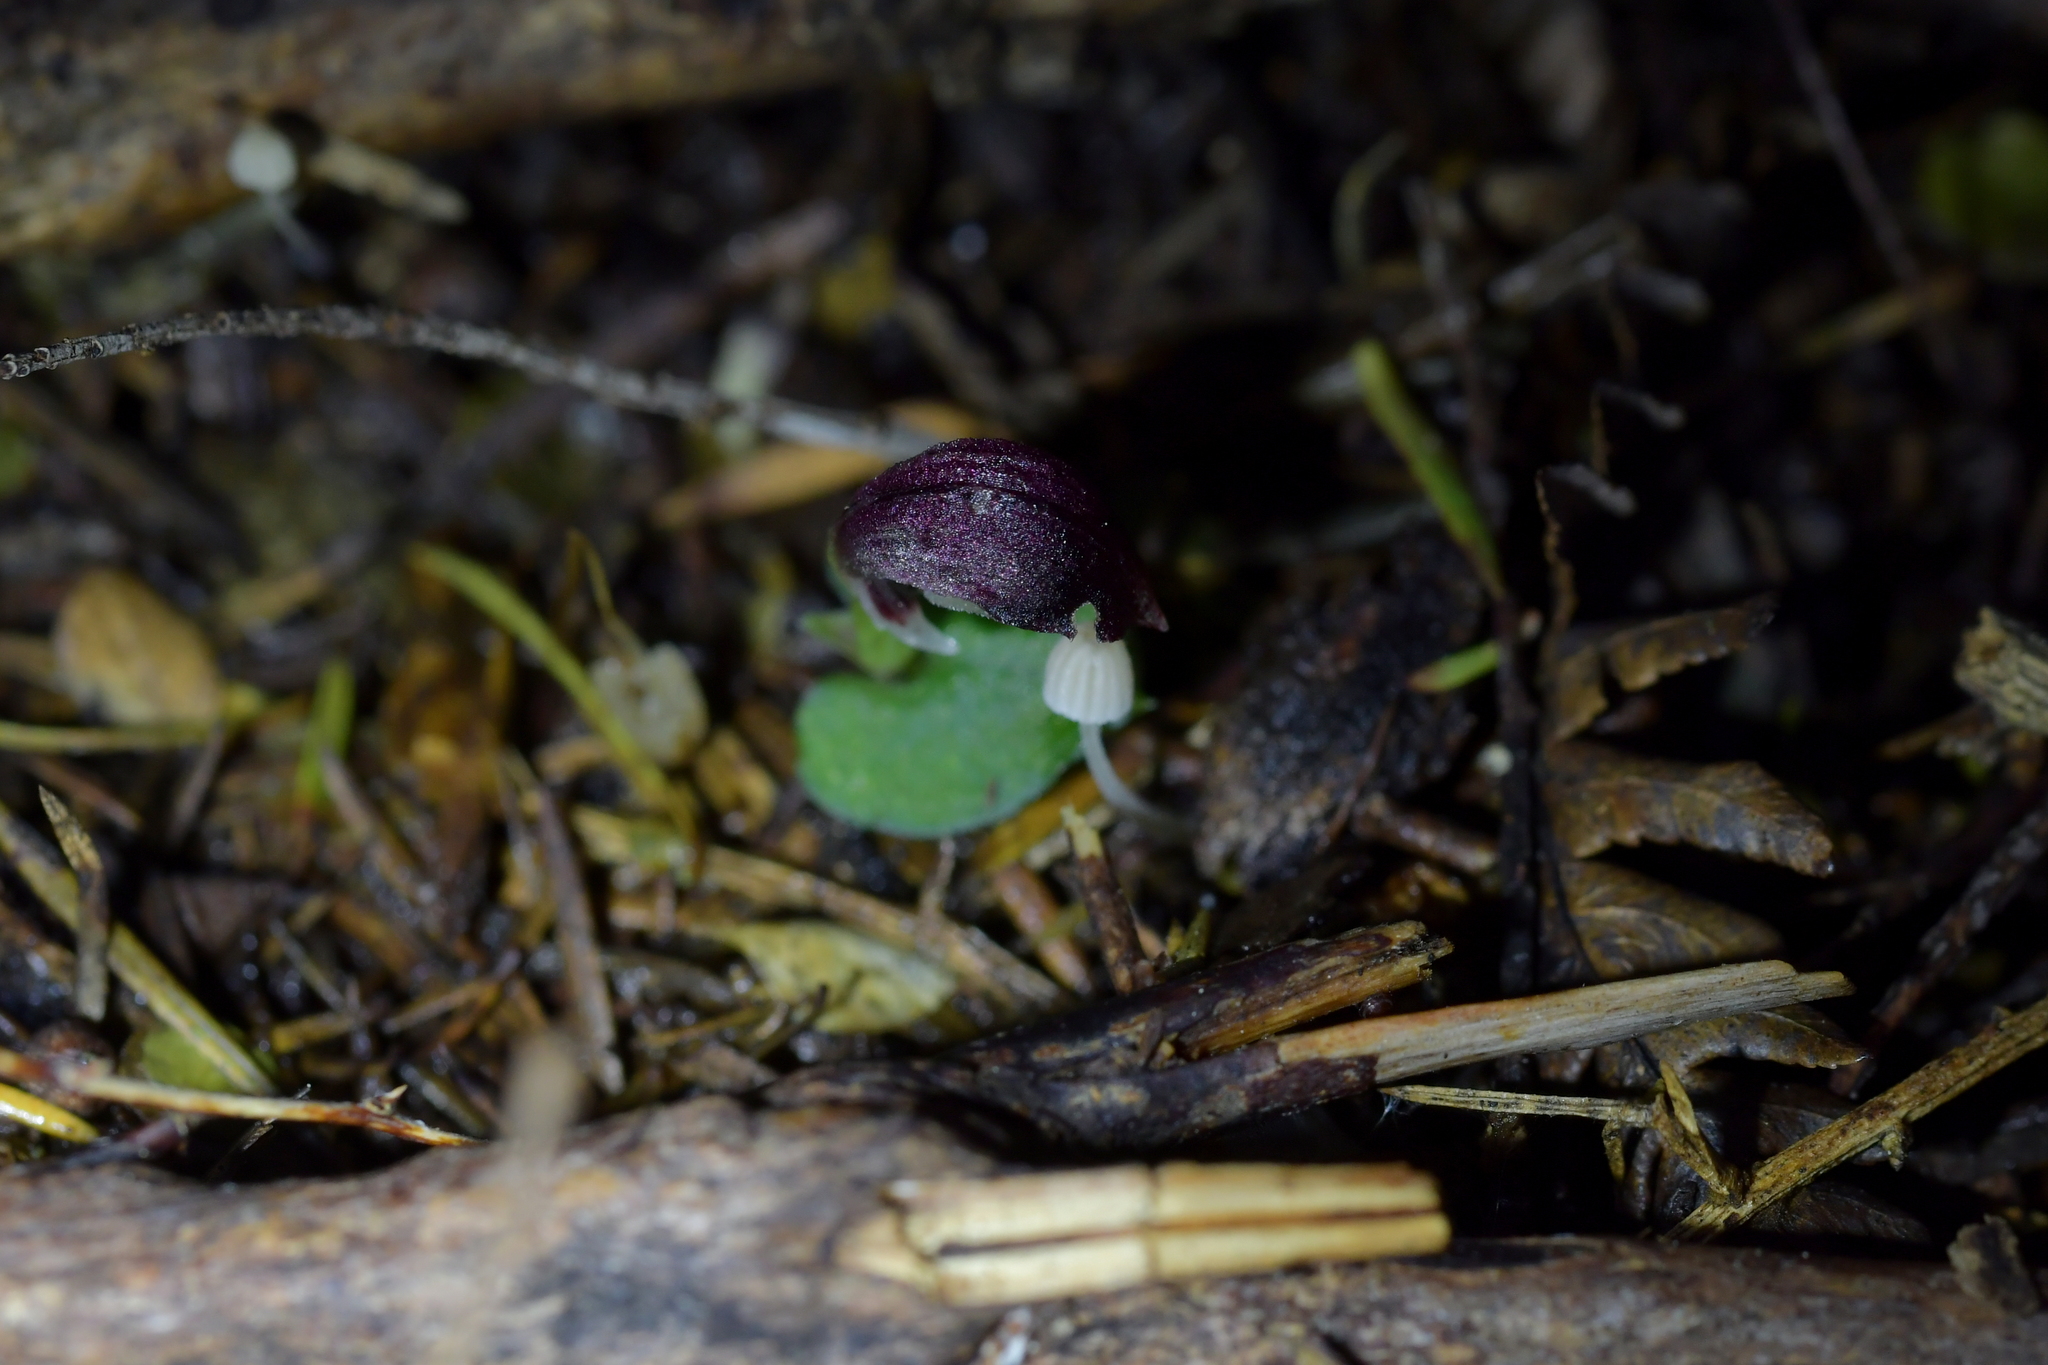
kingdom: Plantae
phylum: Tracheophyta
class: Liliopsida
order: Asparagales
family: Orchidaceae
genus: Corybas
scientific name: Corybas cheesemanii
